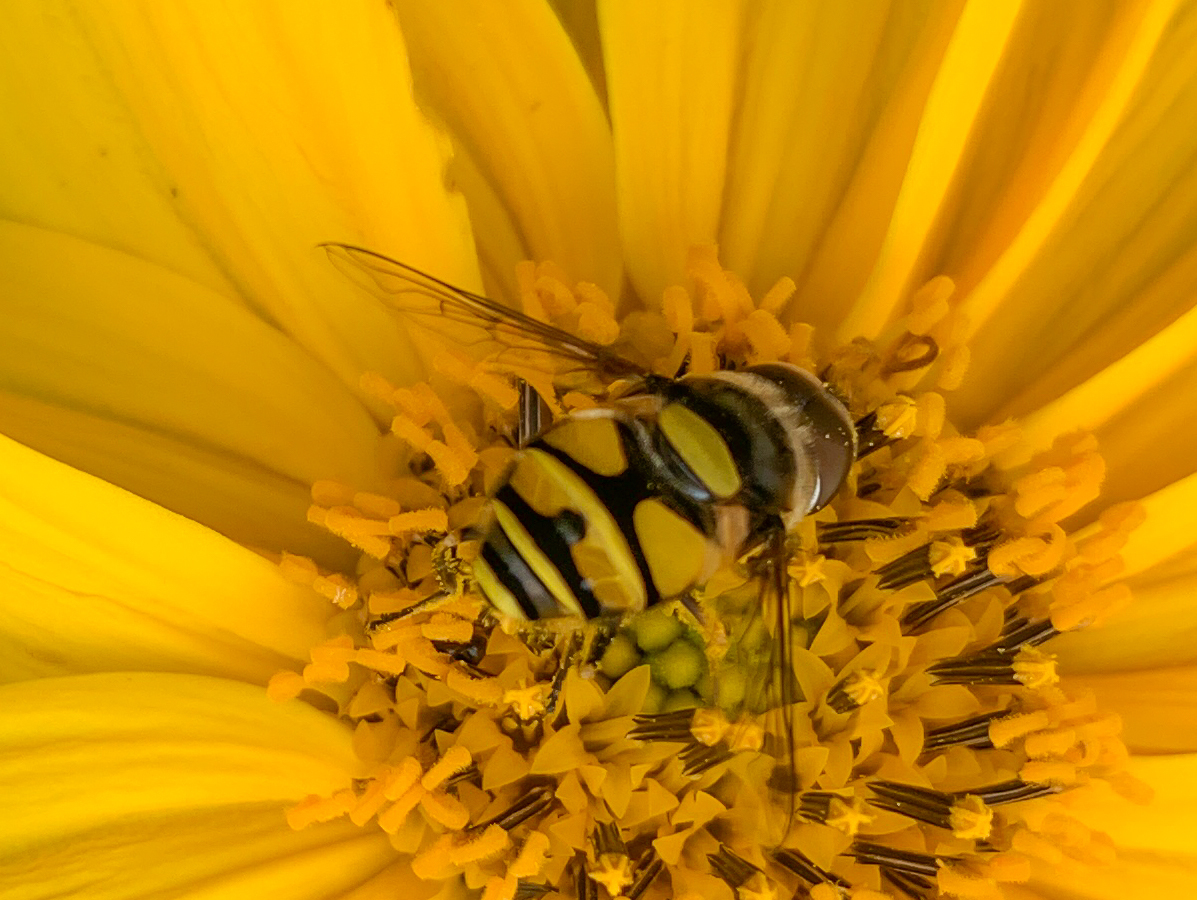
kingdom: Animalia
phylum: Arthropoda
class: Insecta
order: Diptera
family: Syrphidae
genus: Eristalis
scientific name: Eristalis transversa
